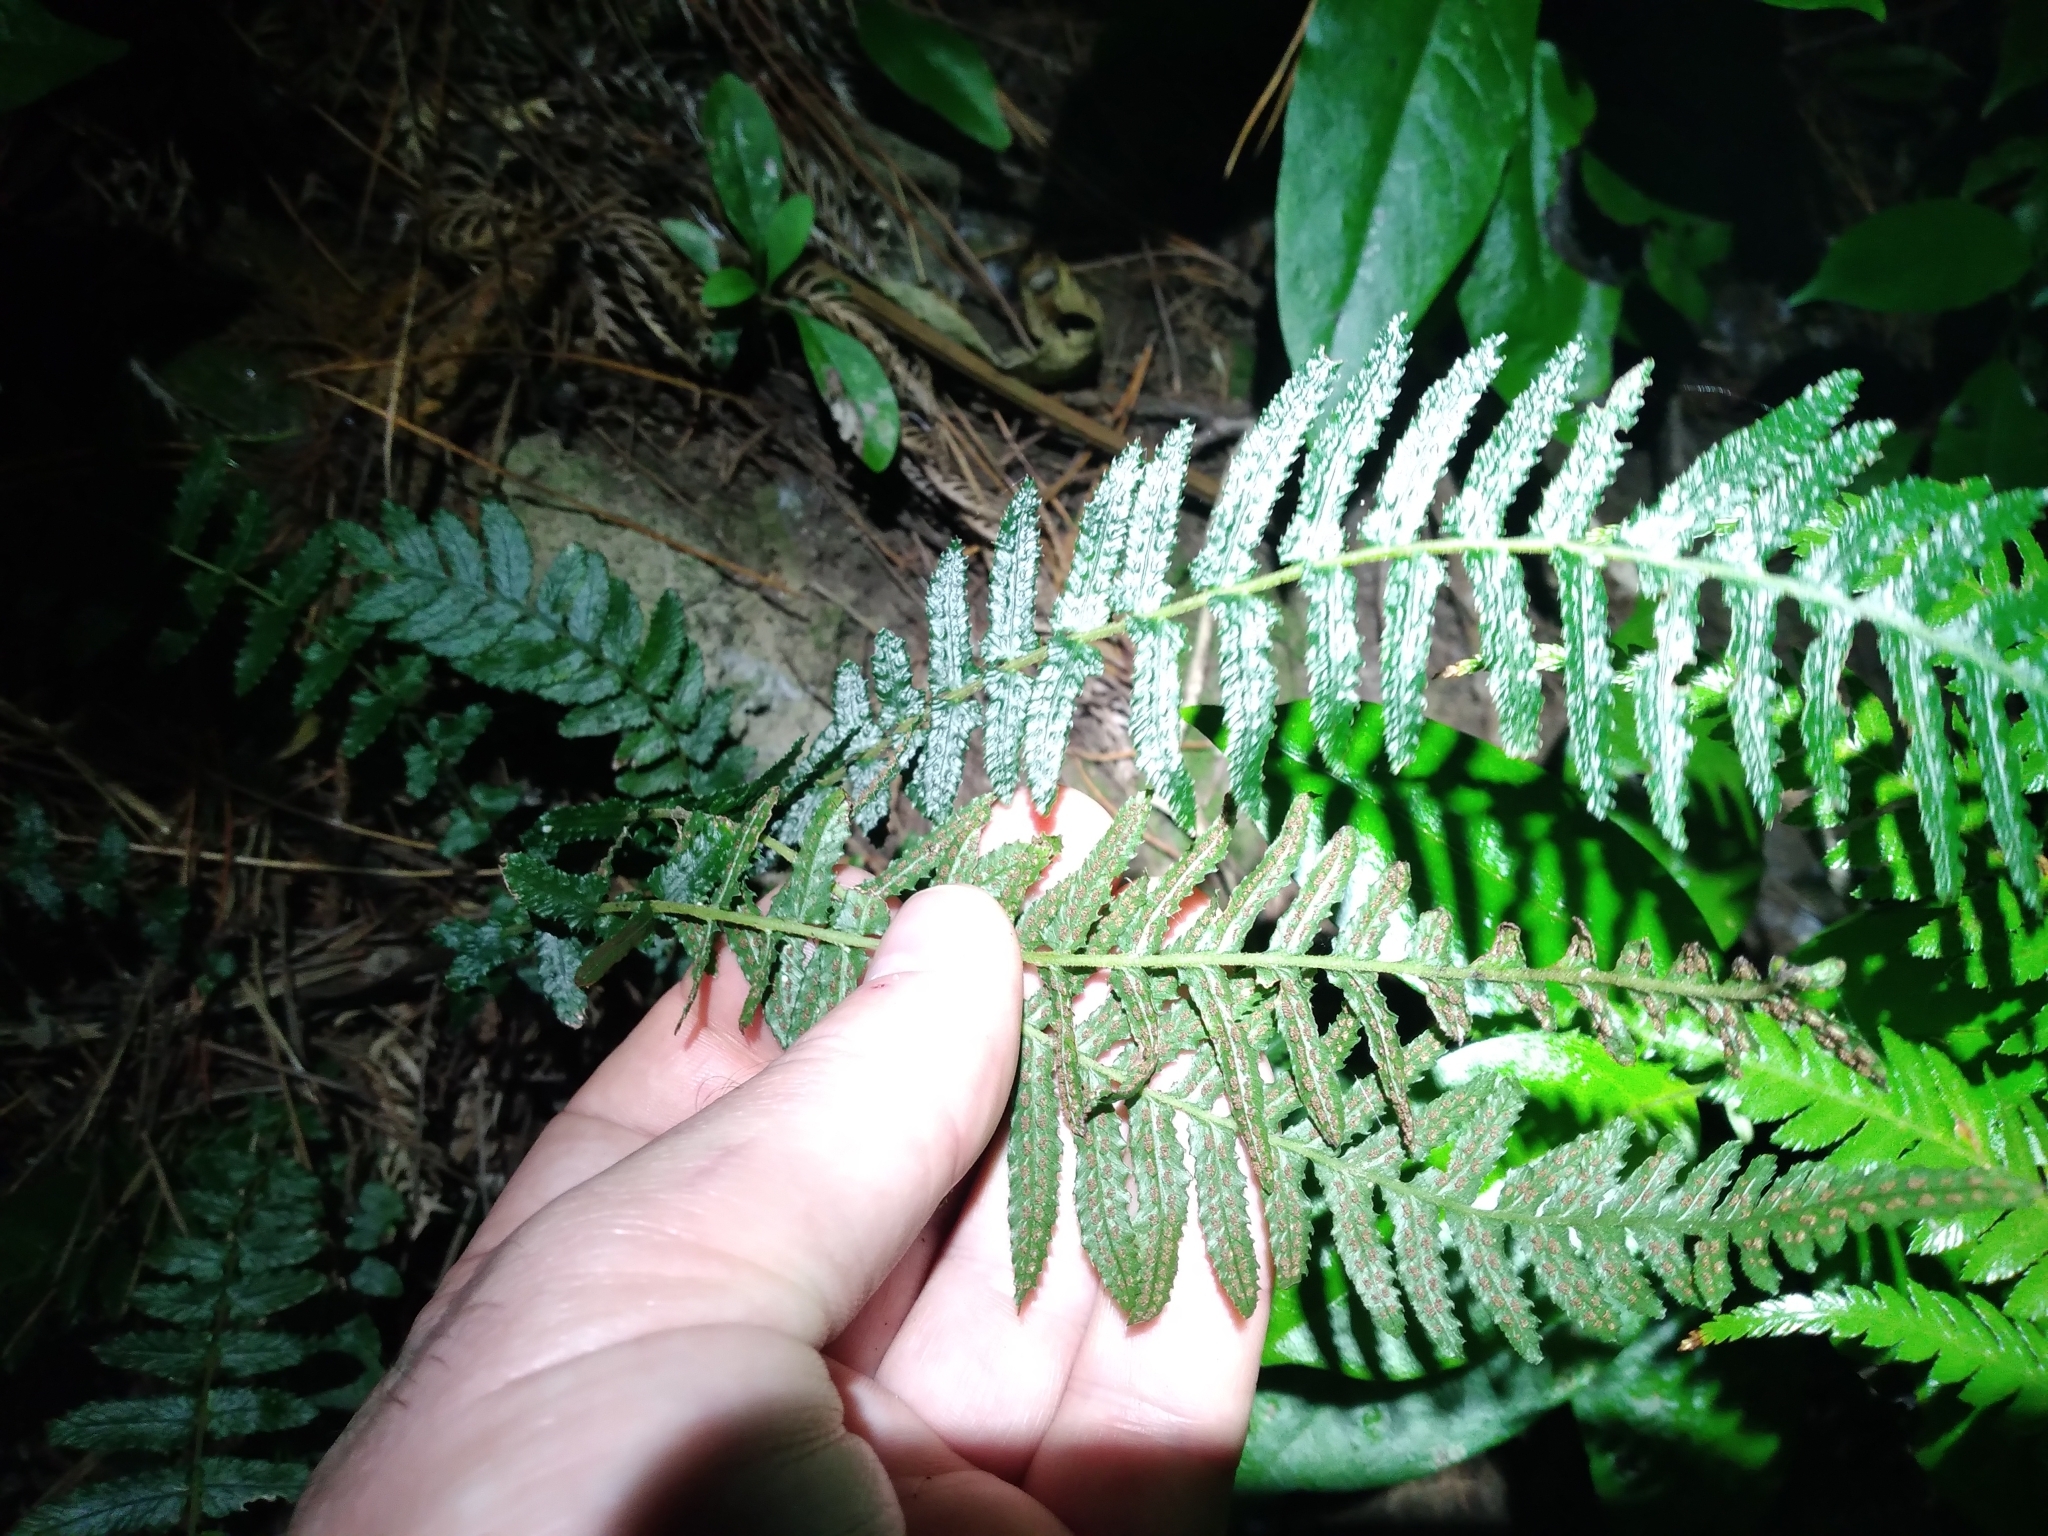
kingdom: Plantae
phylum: Tracheophyta
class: Polypodiopsida
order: Polypodiales
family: Blechnaceae
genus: Doodia
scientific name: Doodia australis
